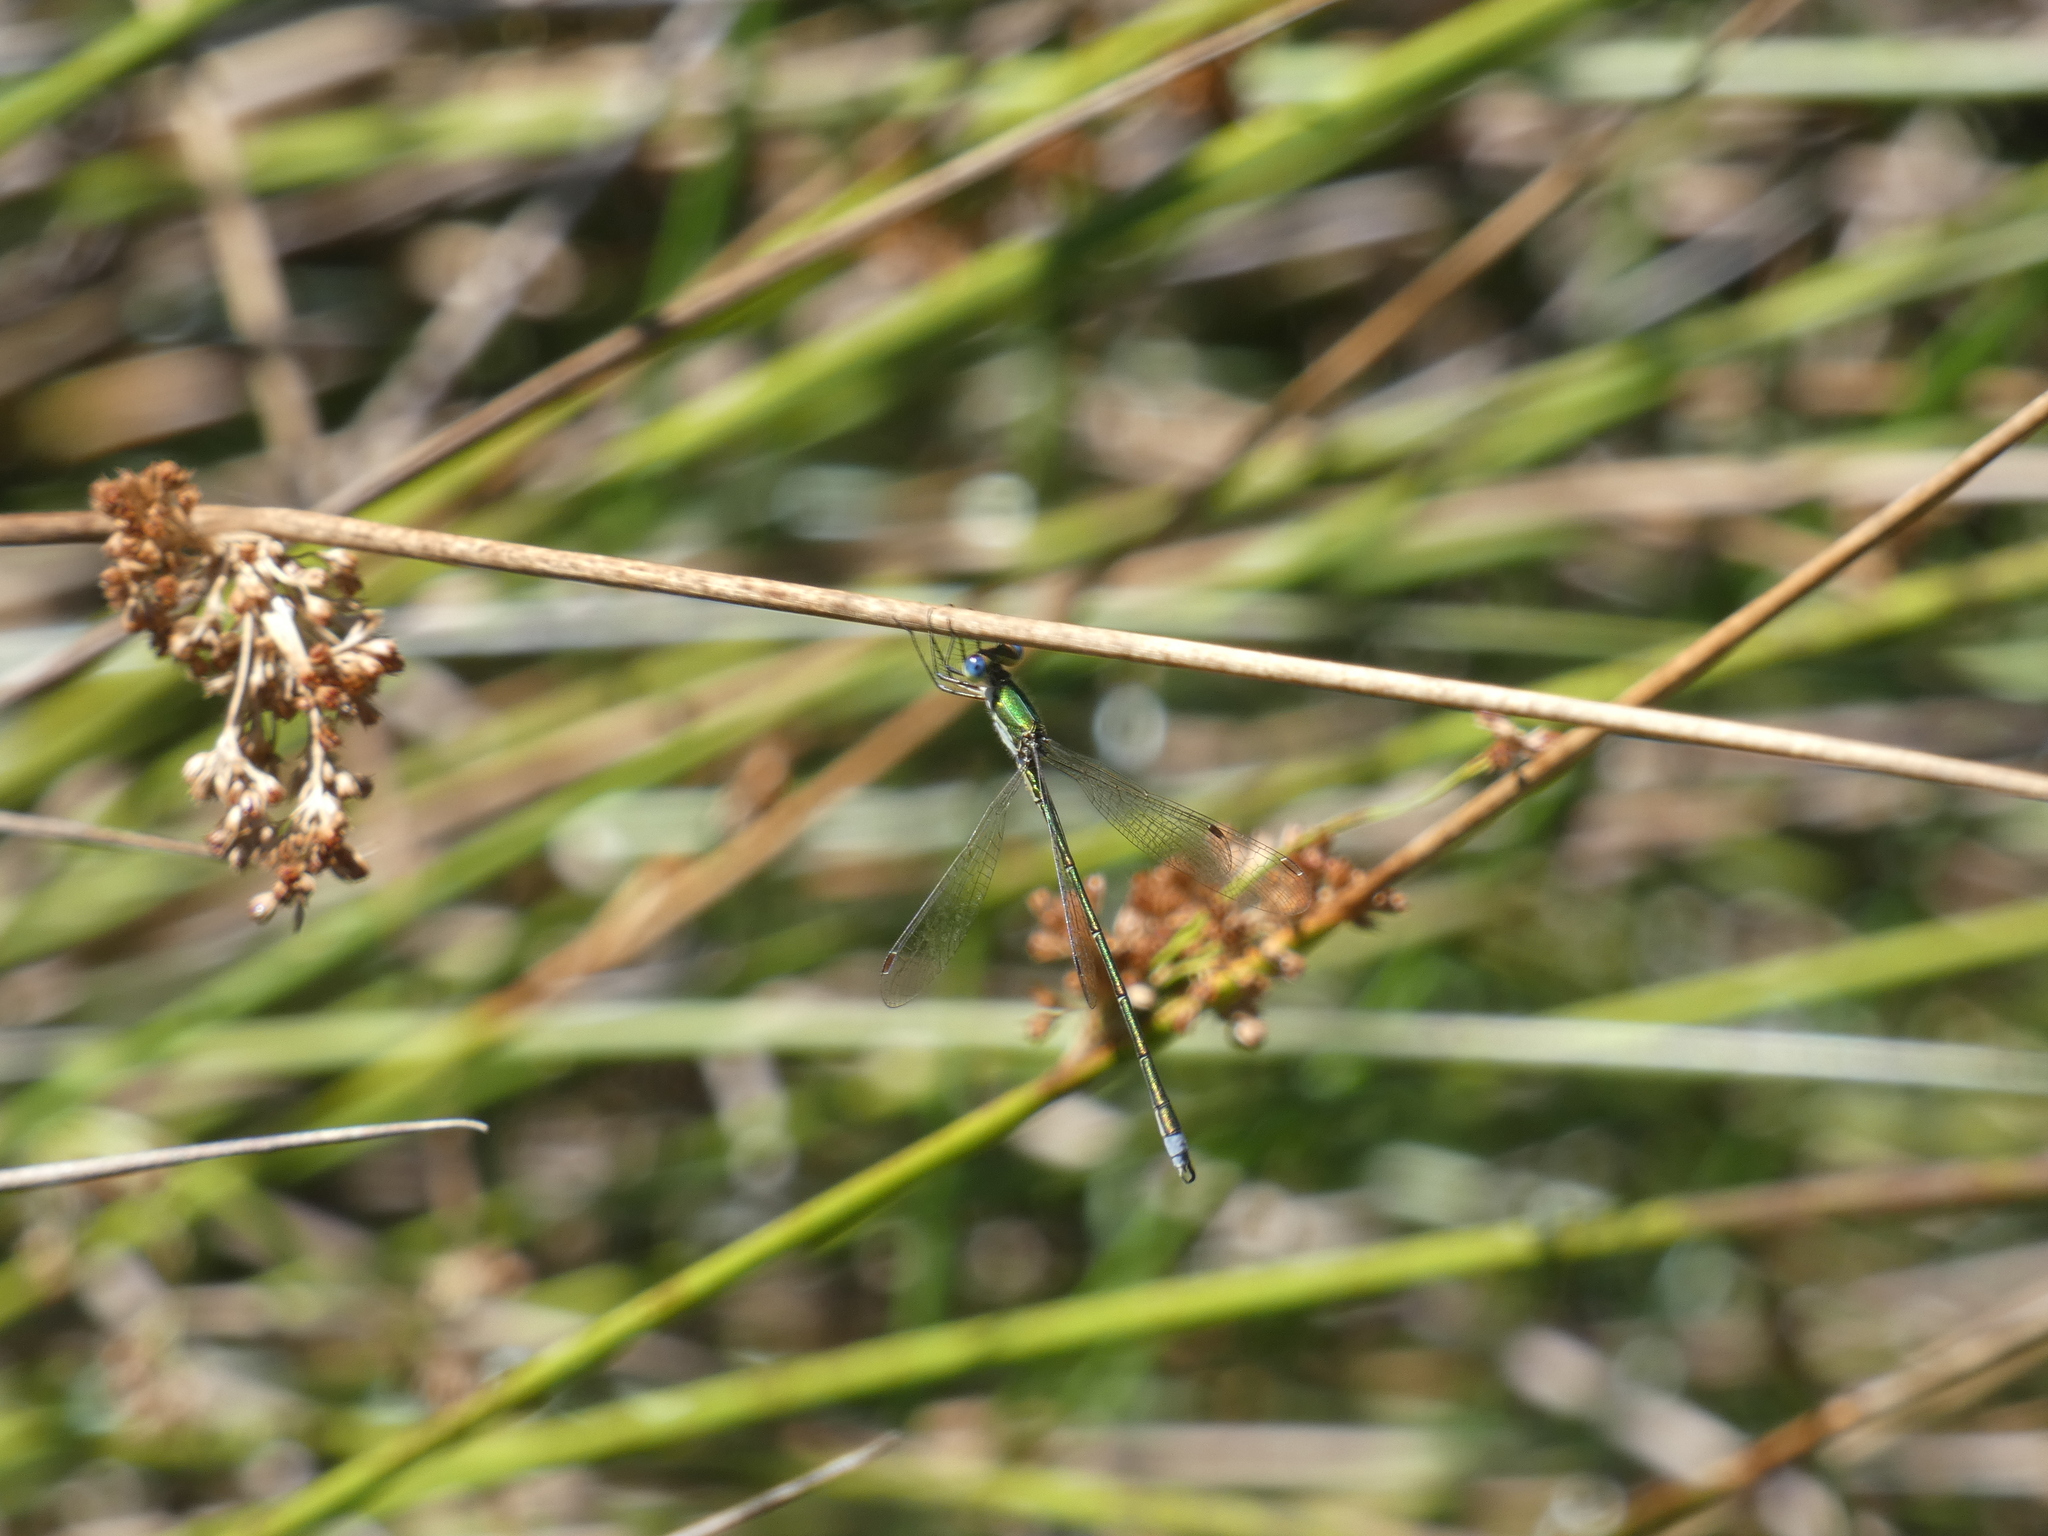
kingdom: Animalia
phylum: Arthropoda
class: Insecta
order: Odonata
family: Lestidae
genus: Lestes
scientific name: Lestes virens
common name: Small emerald spreadwing
